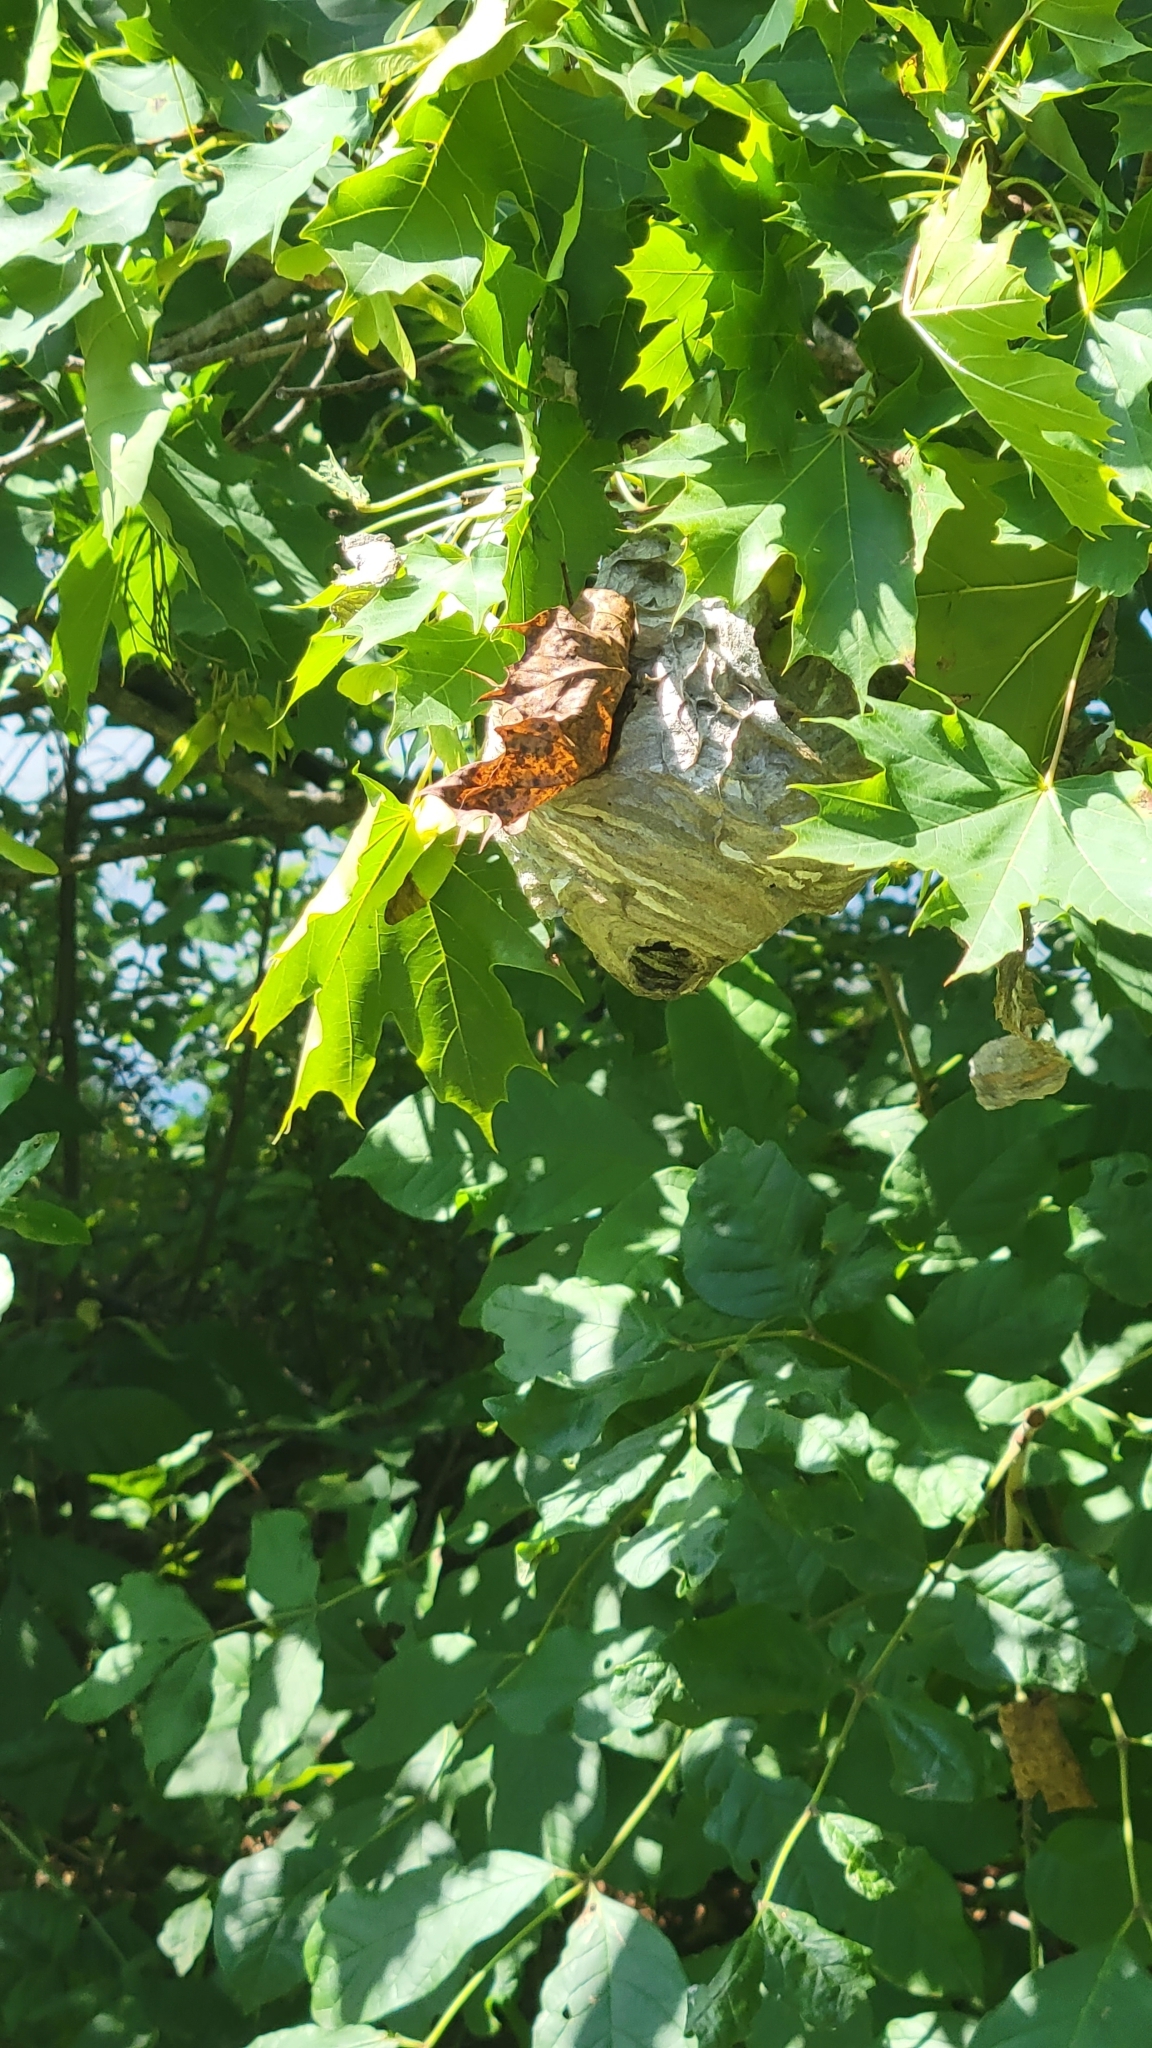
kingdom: Animalia
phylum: Arthropoda
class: Insecta
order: Hymenoptera
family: Vespidae
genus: Dolichovespula
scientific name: Dolichovespula maculata
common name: Bald-faced hornet
